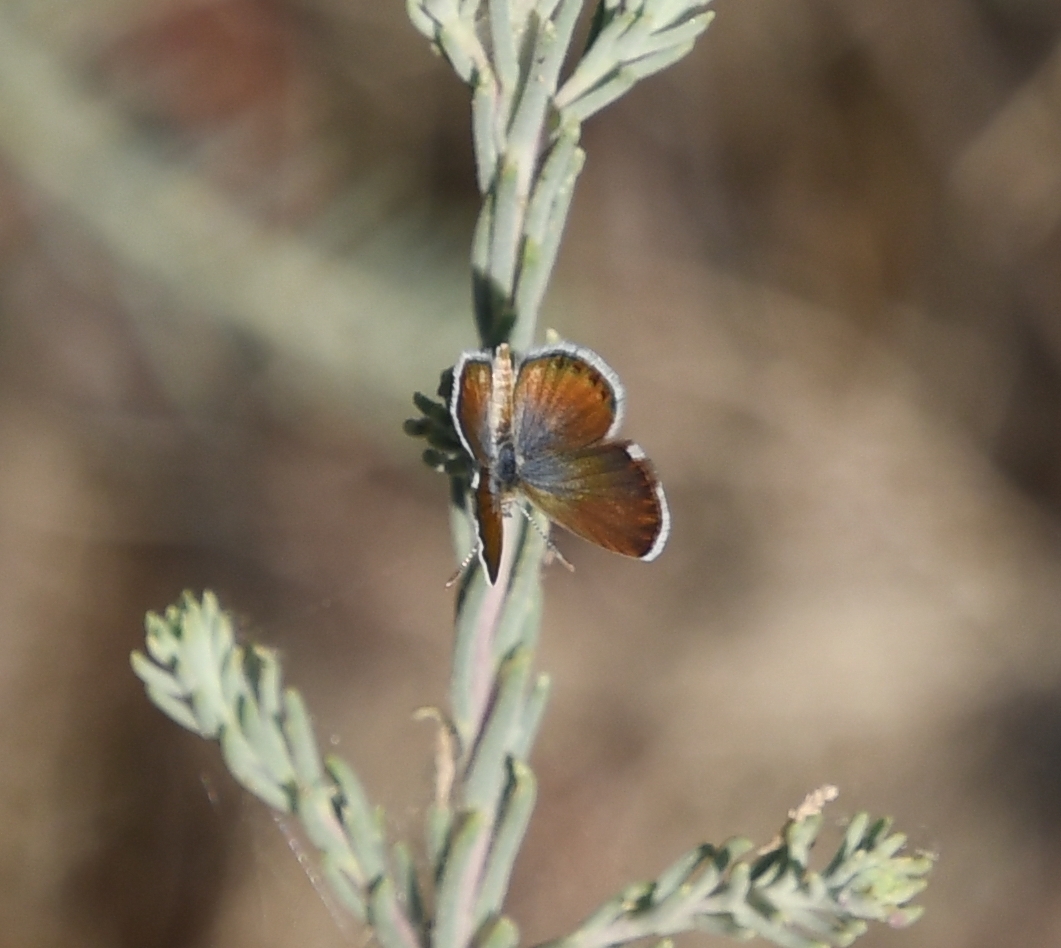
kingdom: Animalia
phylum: Arthropoda
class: Insecta
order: Lepidoptera
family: Lycaenidae
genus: Brephidium
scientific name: Brephidium exilis
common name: Pygmy blue
